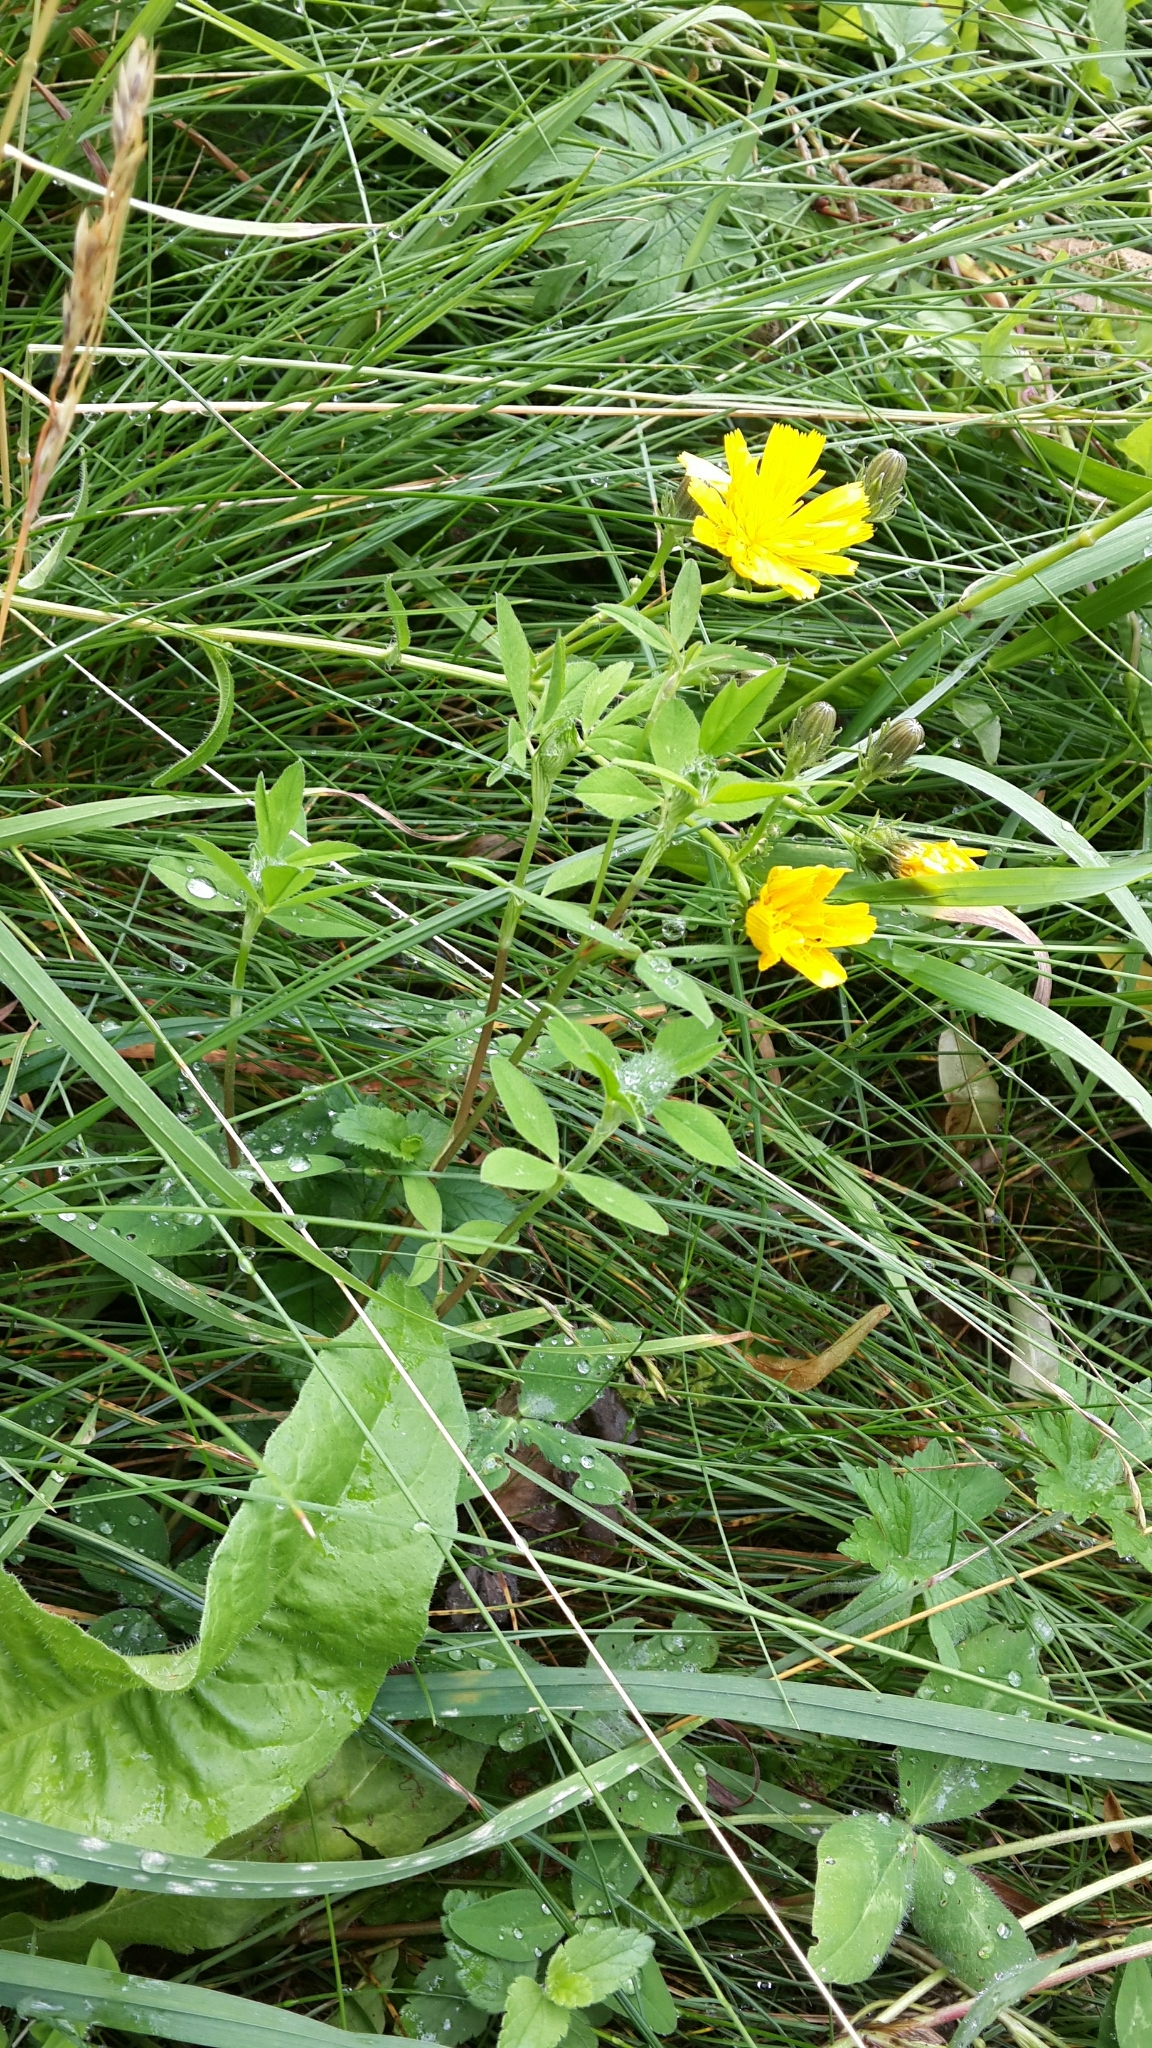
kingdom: Plantae
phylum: Tracheophyta
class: Magnoliopsida
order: Asterales
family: Asteraceae
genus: Picris
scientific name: Picris hieracioides
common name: Hawkweed oxtongue
